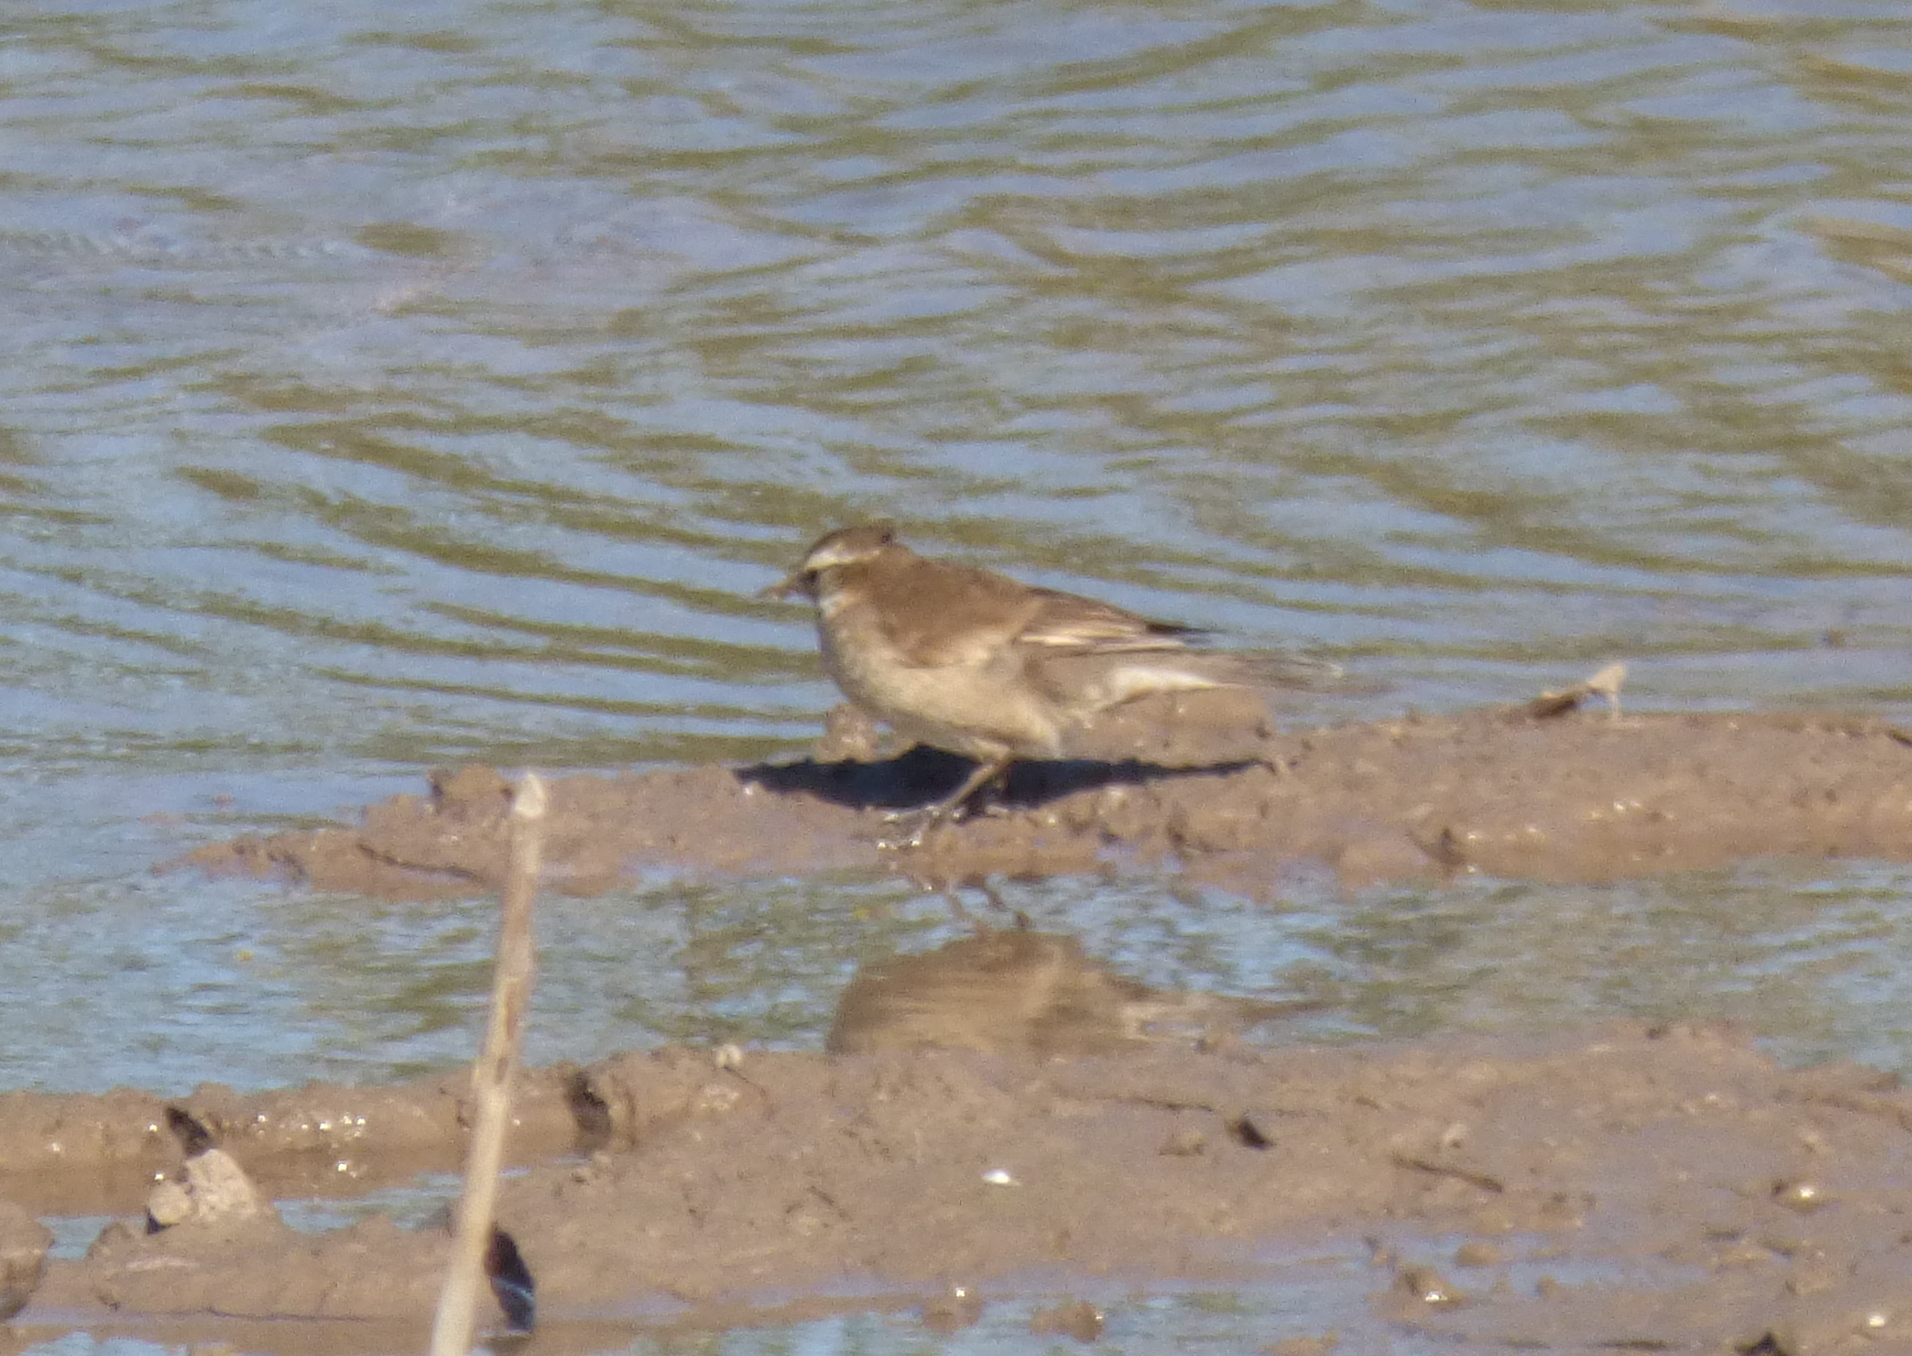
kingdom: Animalia
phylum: Chordata
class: Aves
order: Passeriformes
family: Furnariidae
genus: Cinclodes
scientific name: Cinclodes fuscus
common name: Buff-winged cinclodes
